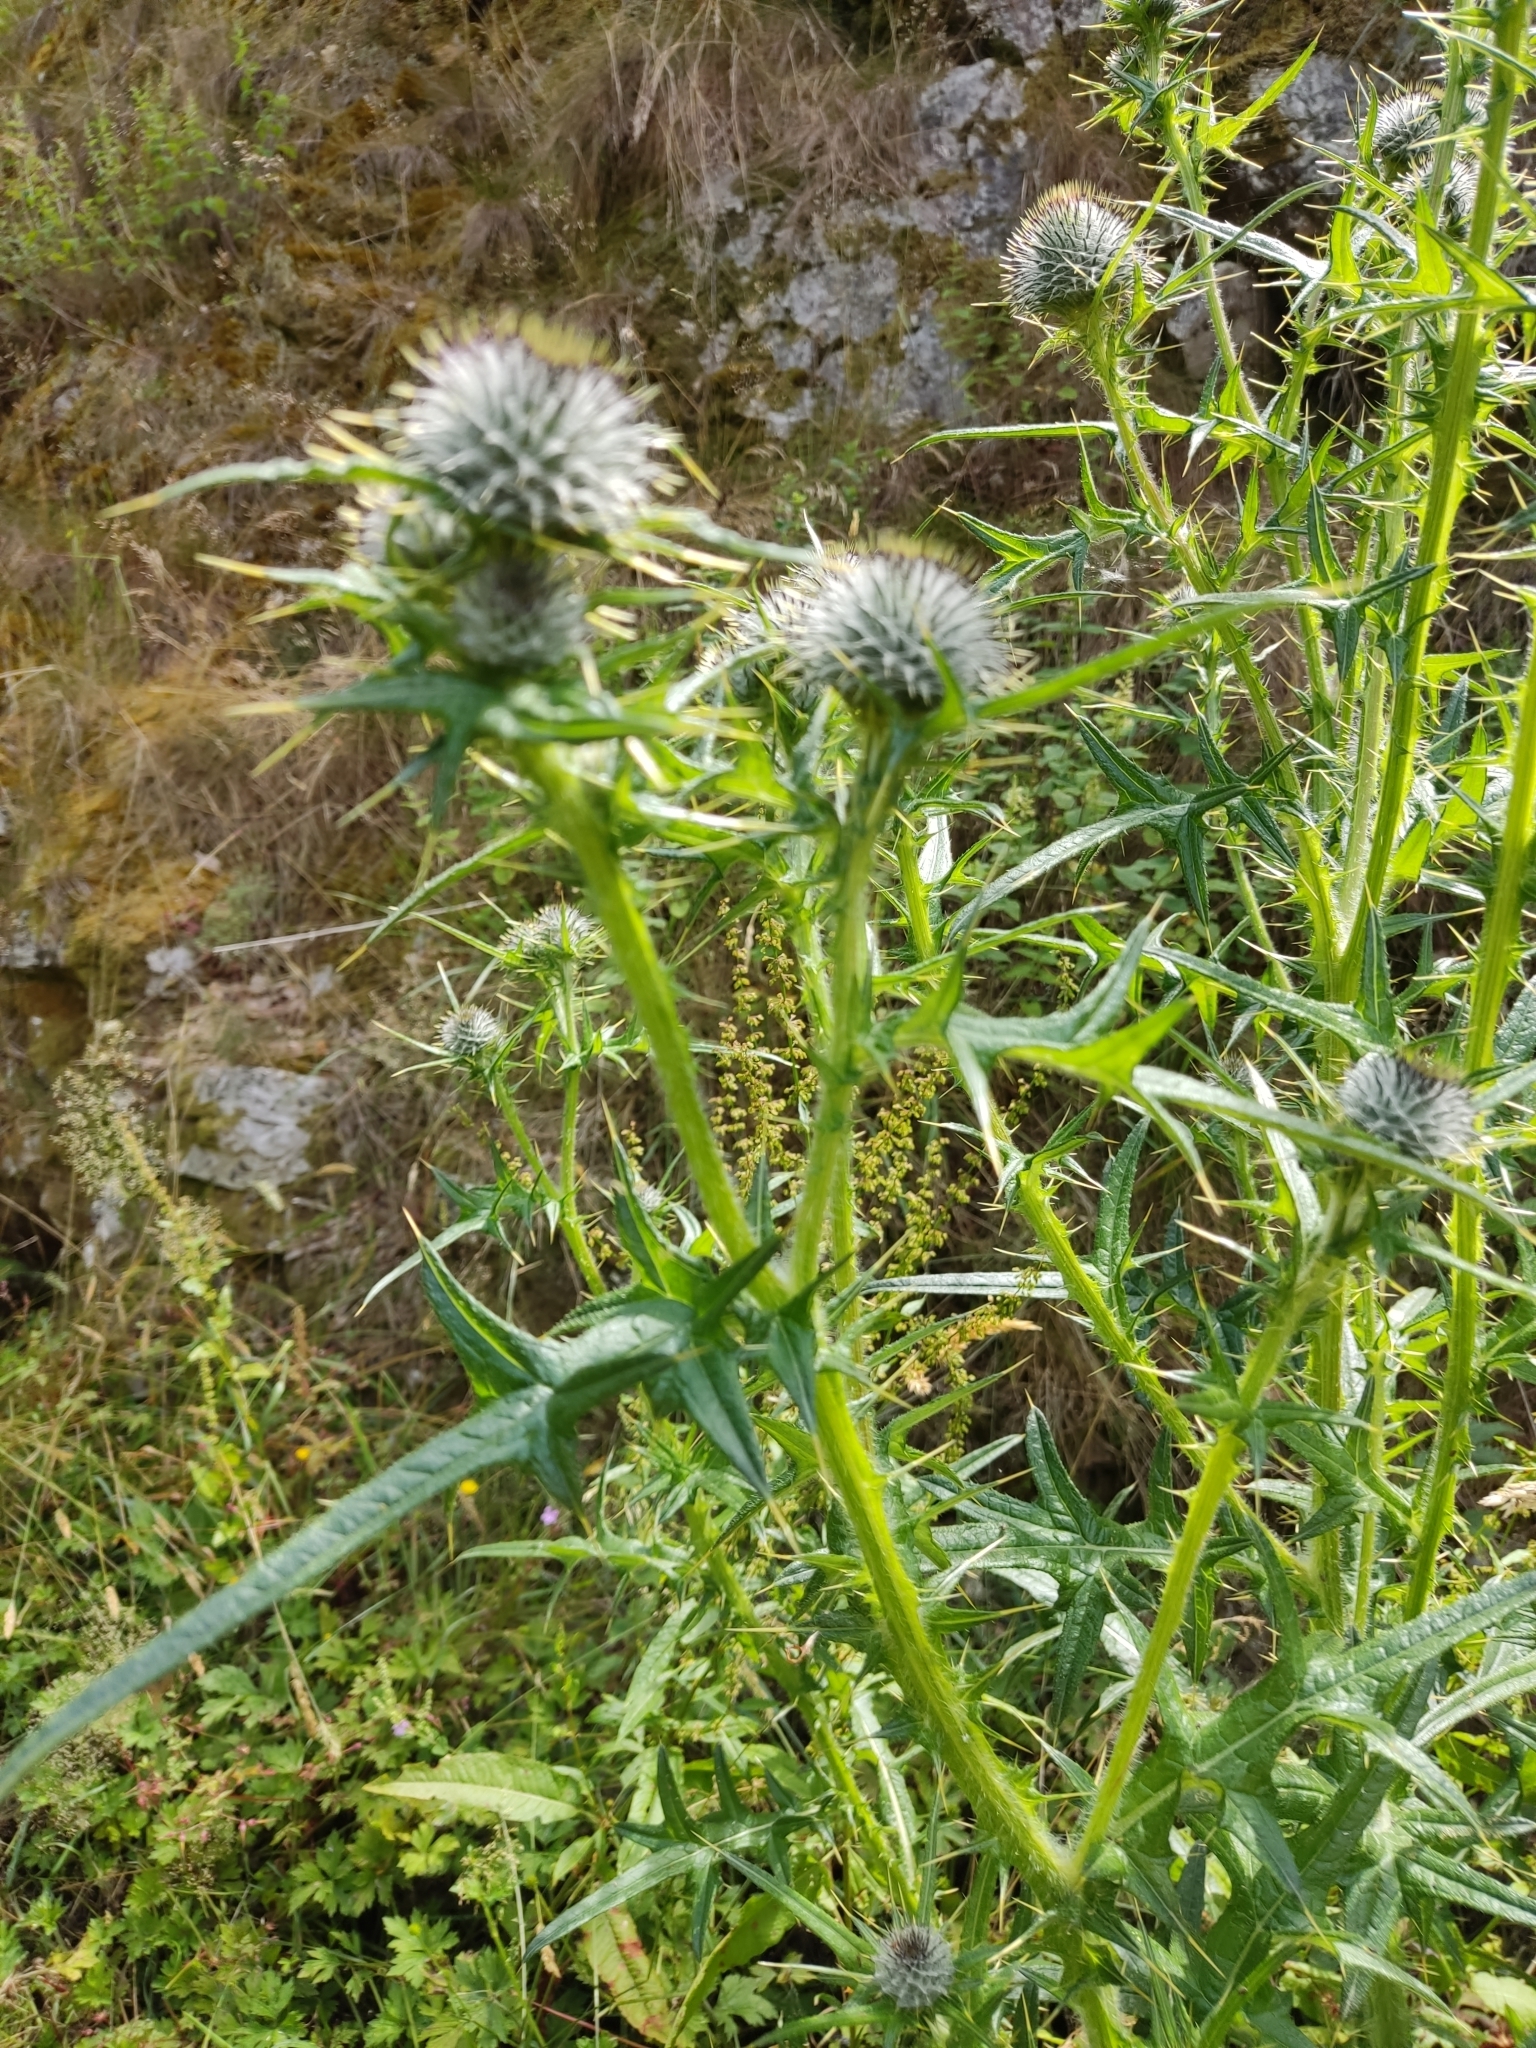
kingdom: Plantae
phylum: Tracheophyta
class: Magnoliopsida
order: Asterales
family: Asteraceae
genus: Cirsium
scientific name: Cirsium vulgare
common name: Bull thistle
